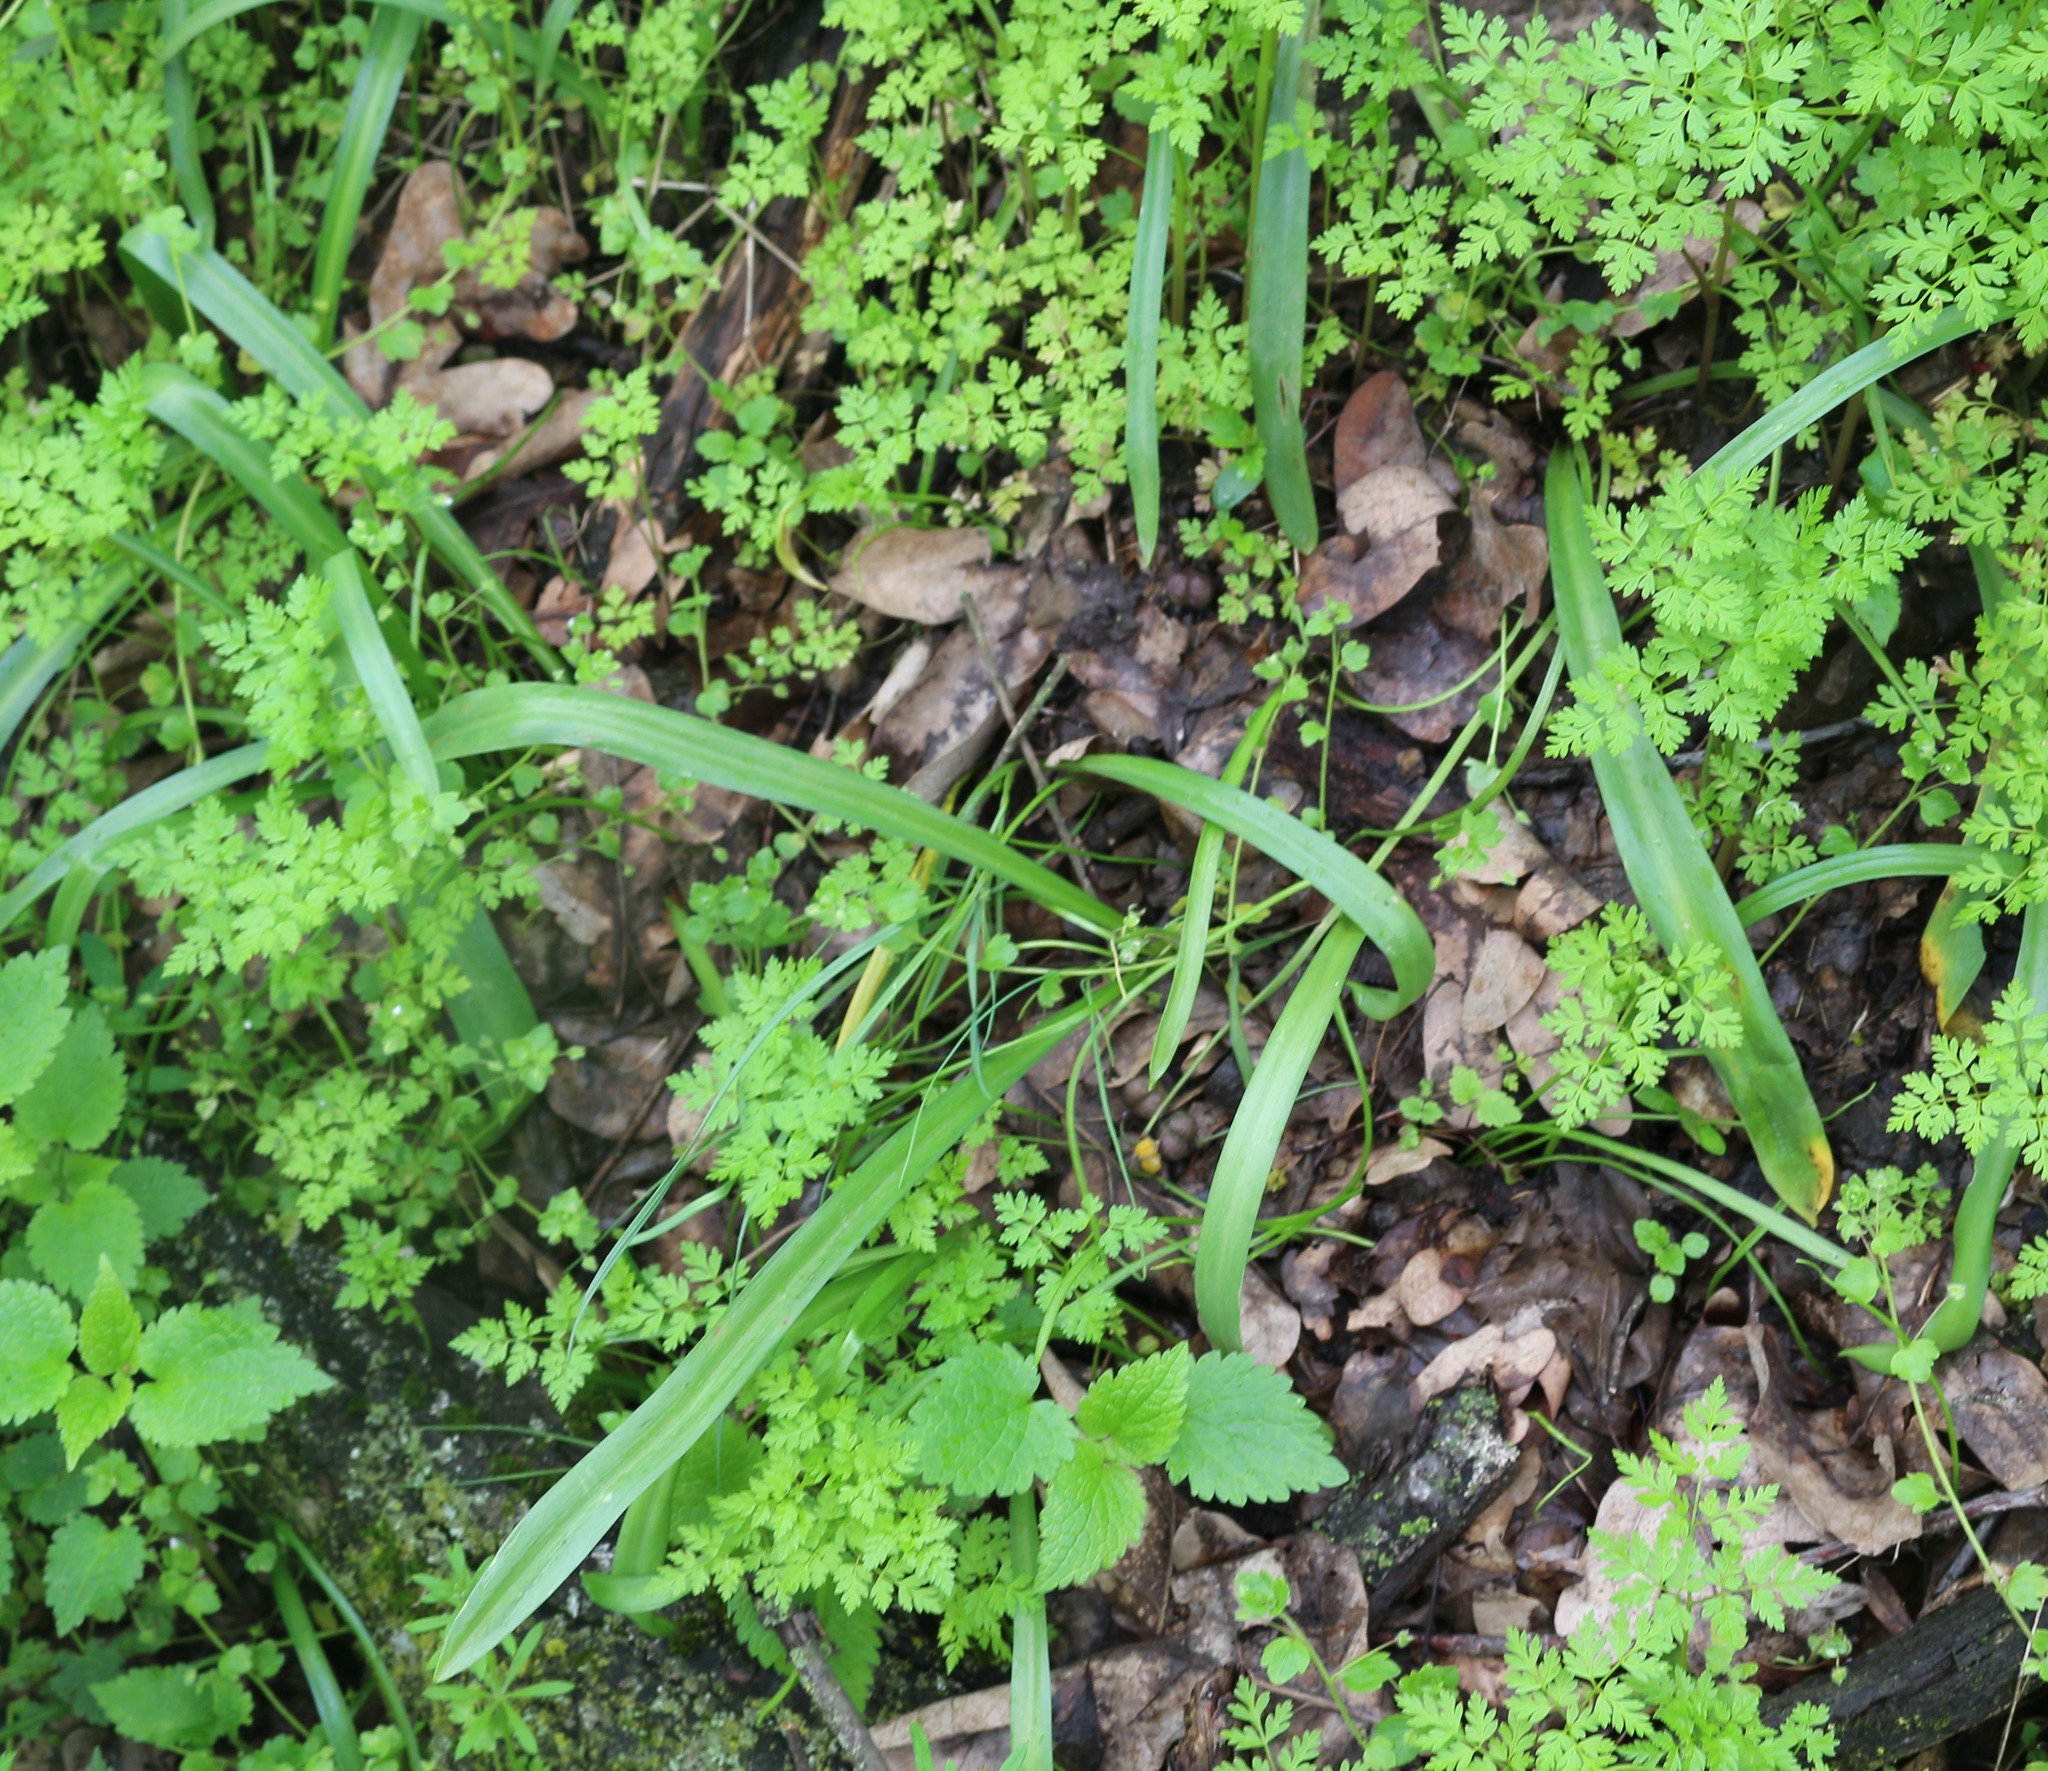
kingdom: Plantae
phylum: Tracheophyta
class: Liliopsida
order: Asparagales
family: Asparagaceae
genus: Scilla
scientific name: Scilla siberica
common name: Siberian squill
